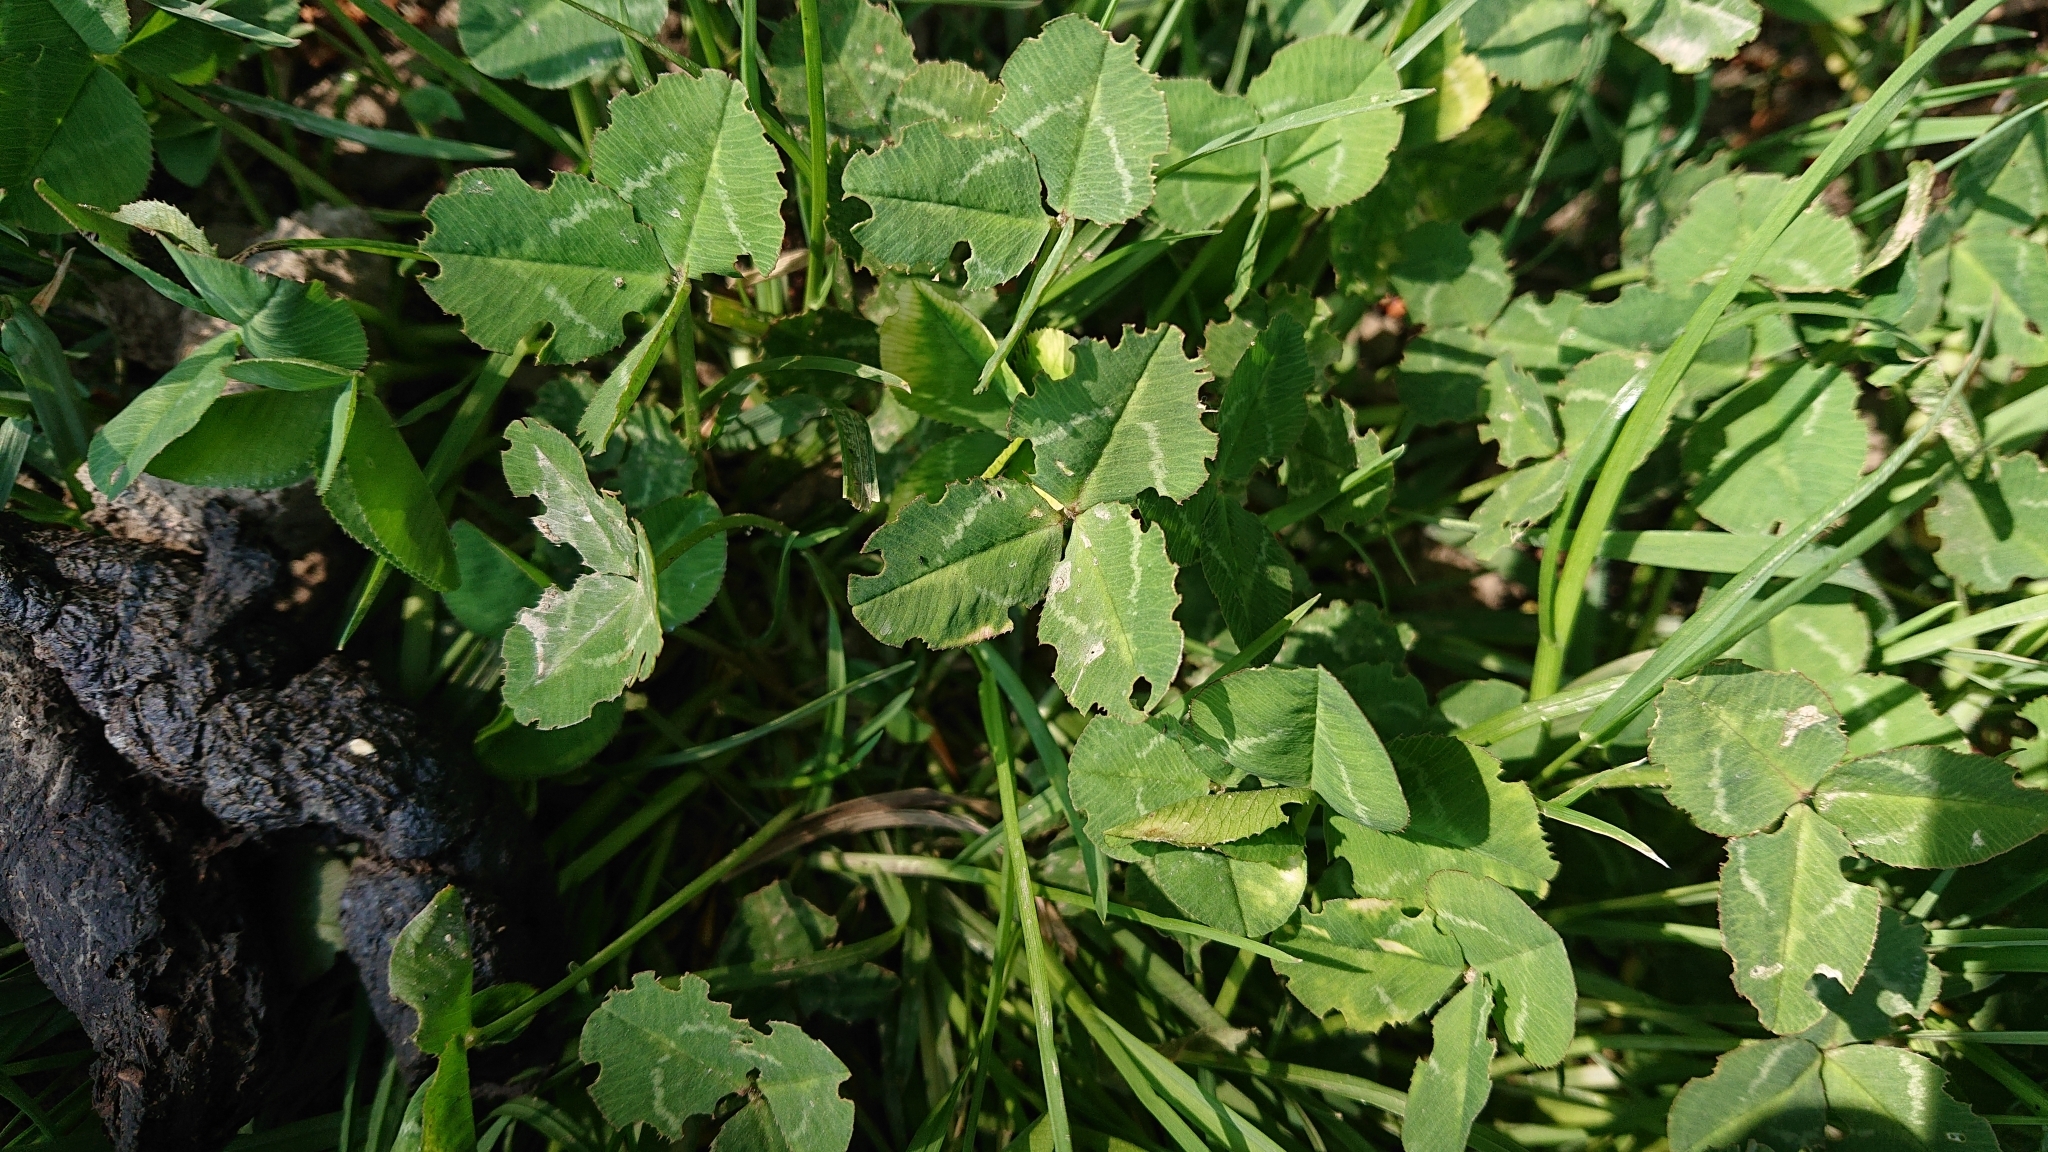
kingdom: Plantae
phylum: Tracheophyta
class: Magnoliopsida
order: Fabales
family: Fabaceae
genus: Trifolium
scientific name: Trifolium repens
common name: White clover
